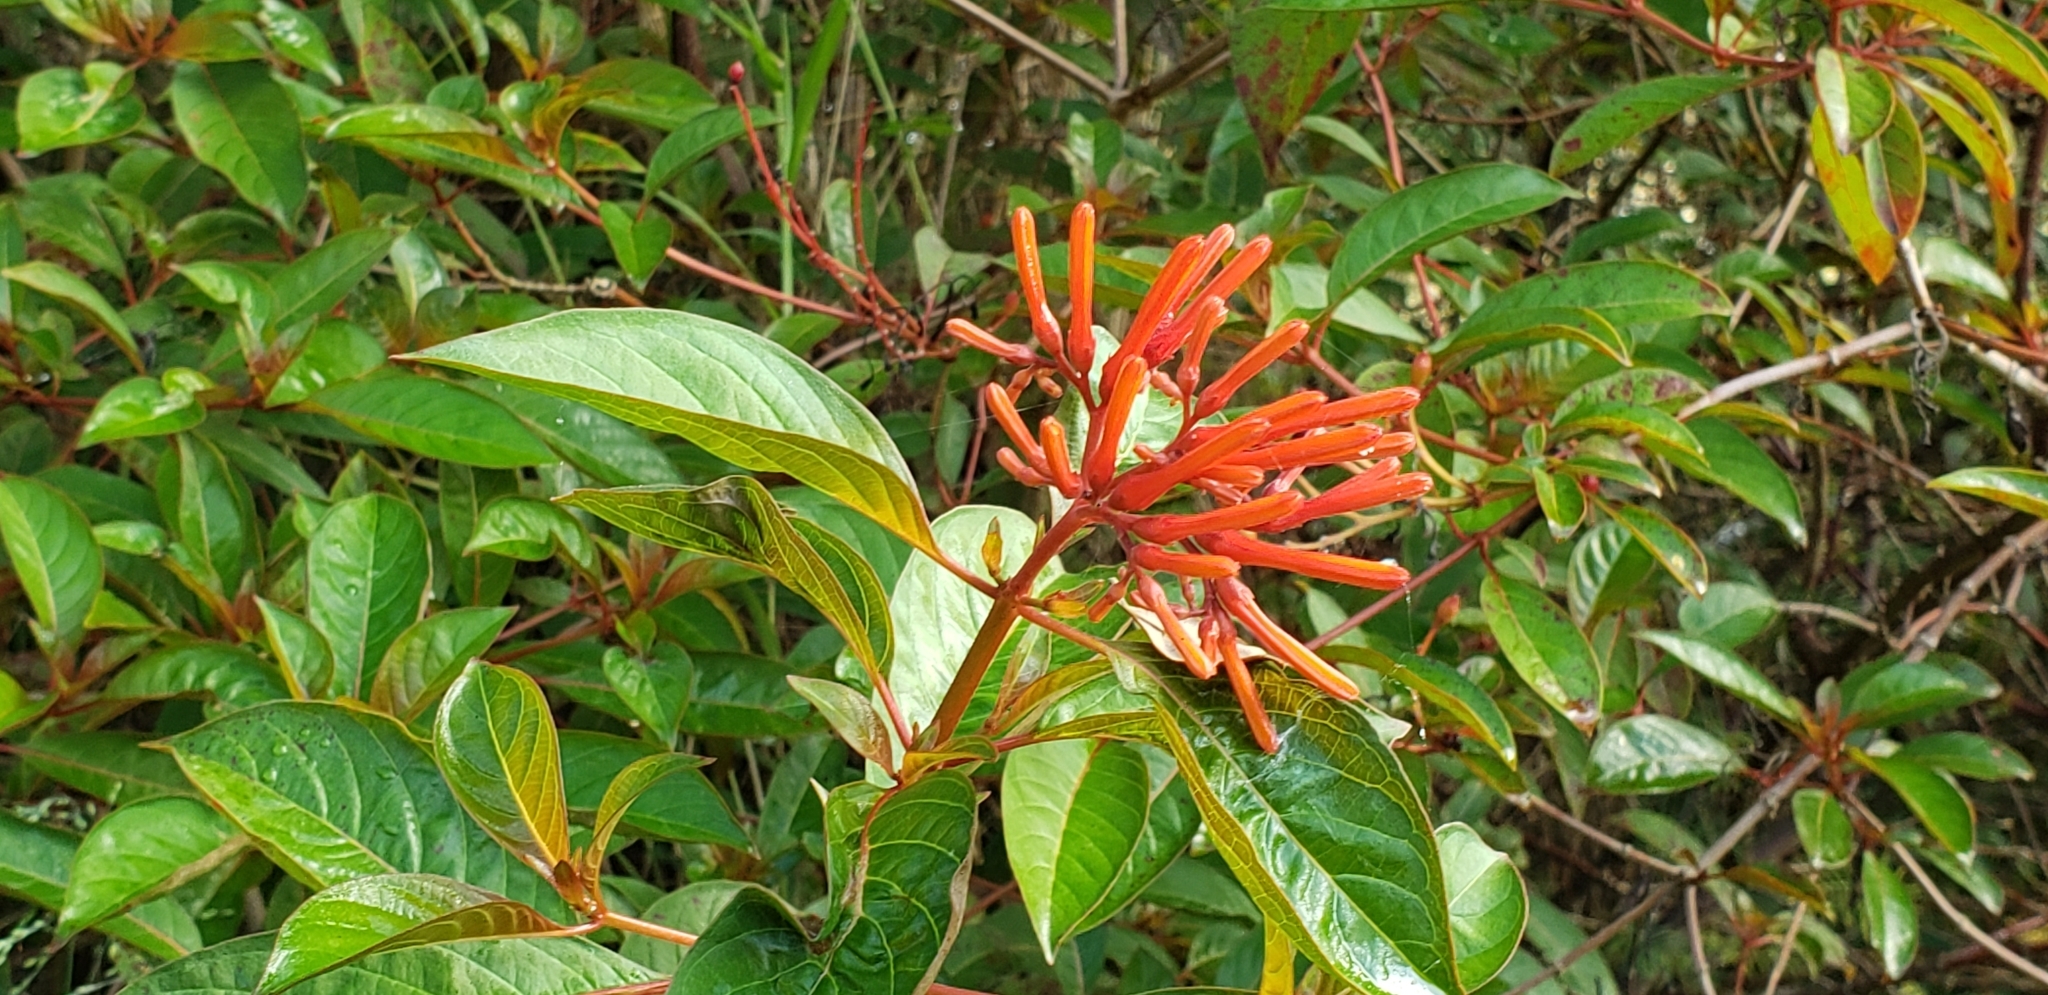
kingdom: Plantae
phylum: Tracheophyta
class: Magnoliopsida
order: Gentianales
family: Rubiaceae
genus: Hamelia
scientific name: Hamelia patens
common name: Redhead
